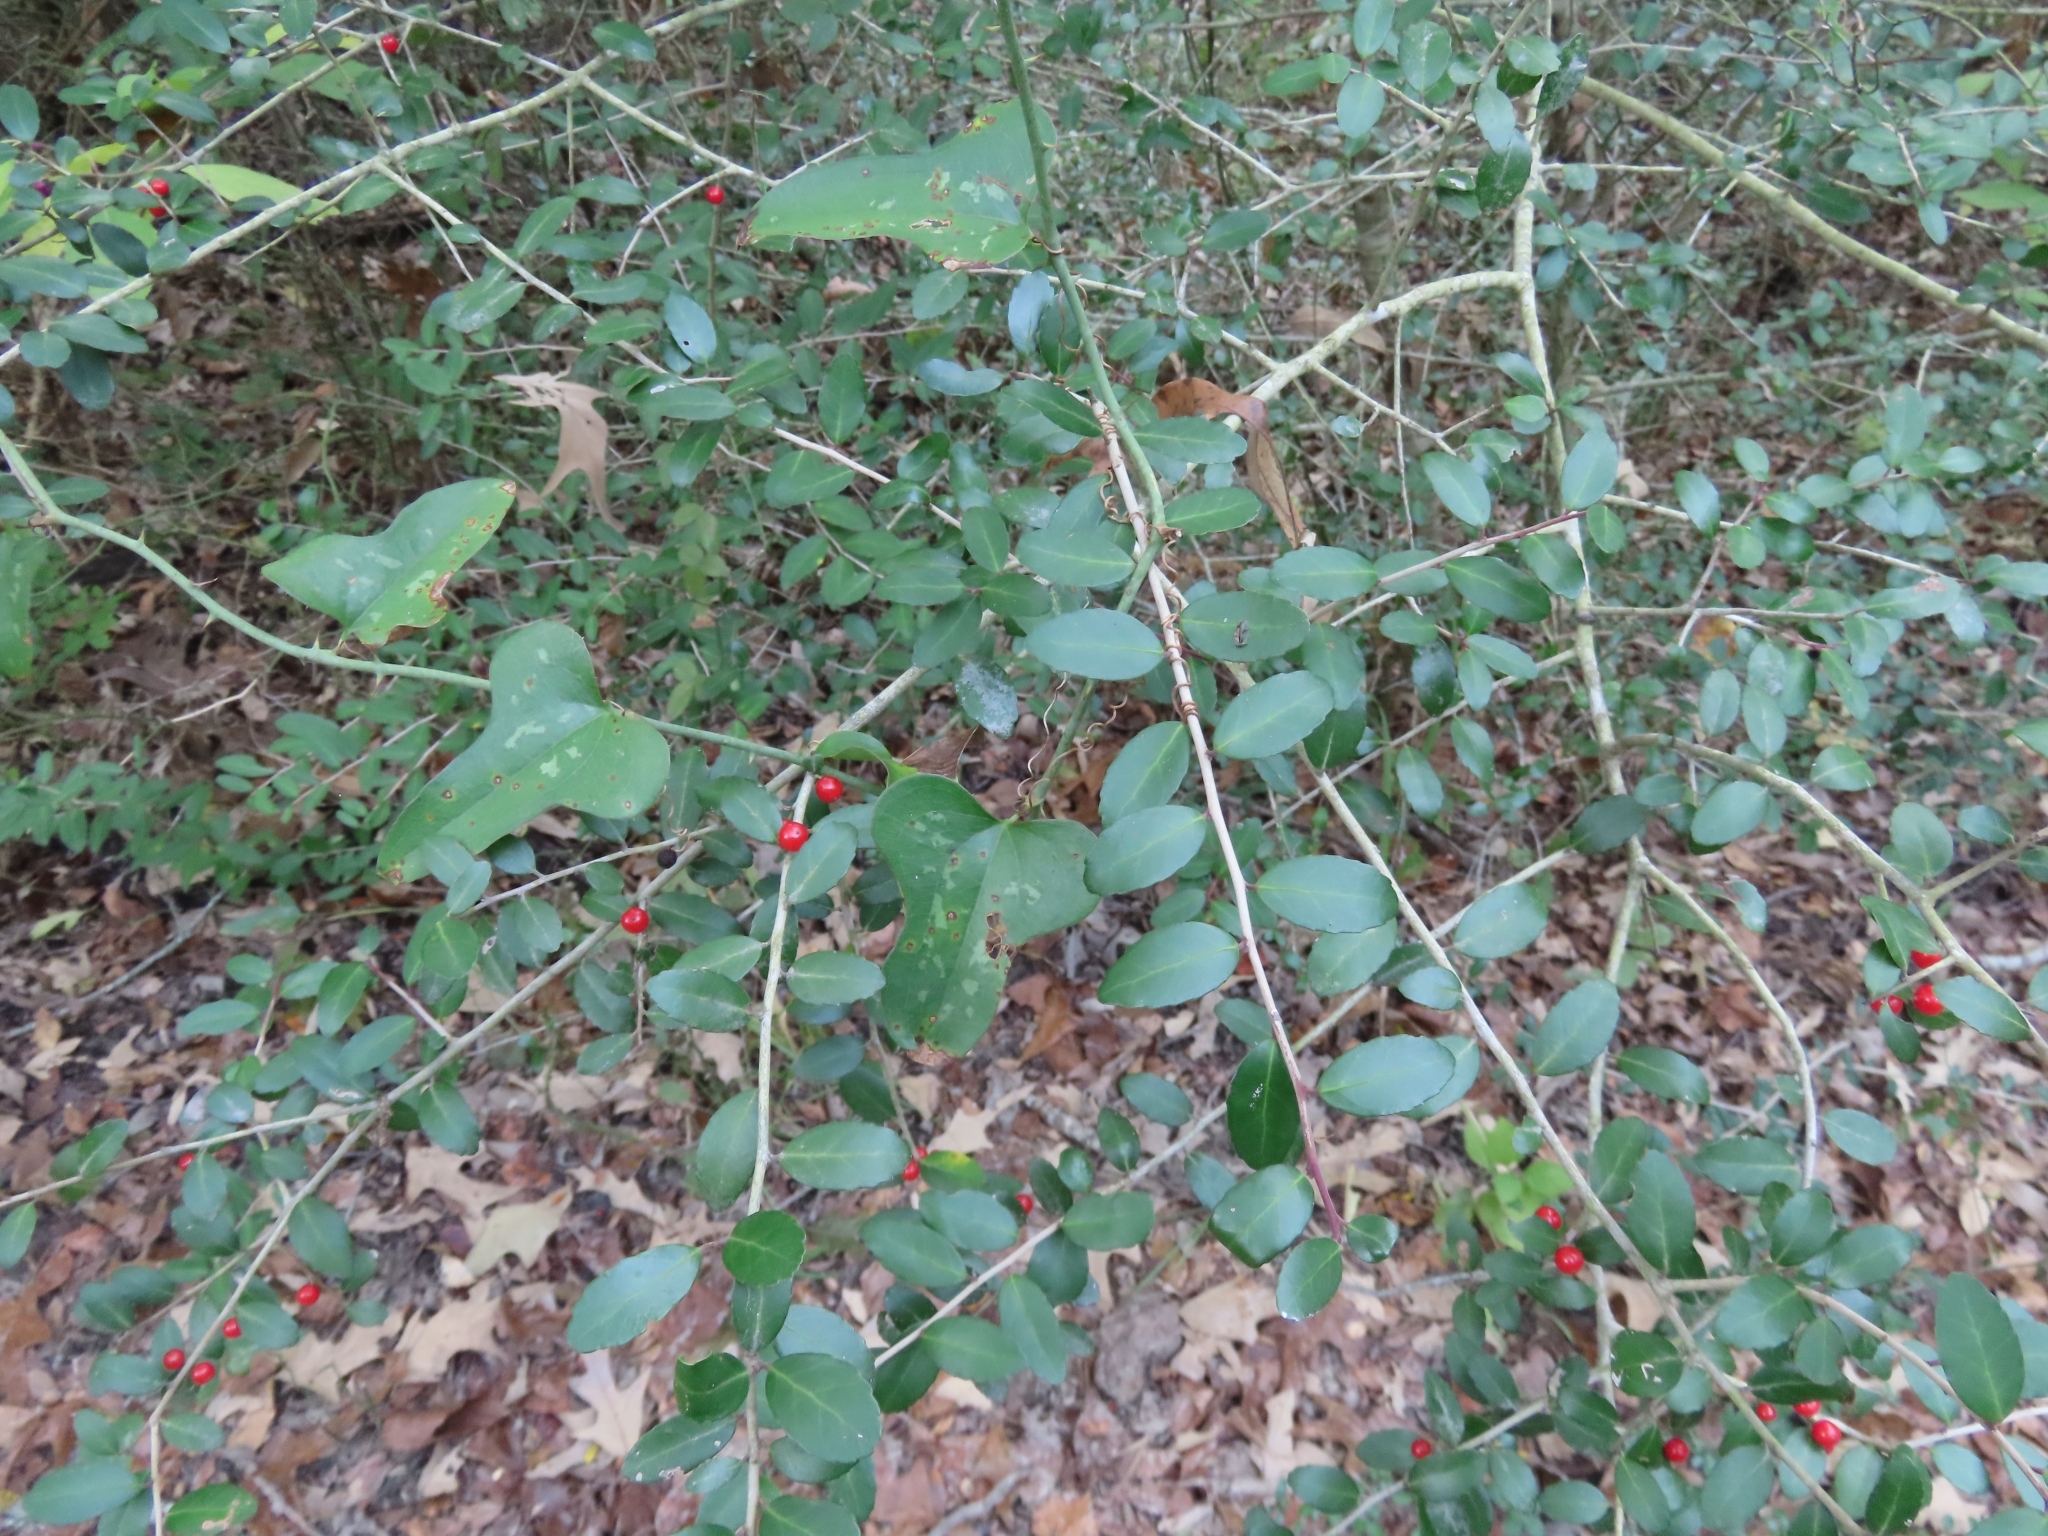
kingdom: Plantae
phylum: Tracheophyta
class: Magnoliopsida
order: Aquifoliales
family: Aquifoliaceae
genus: Ilex
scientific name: Ilex vomitoria
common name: Yaupon holly
